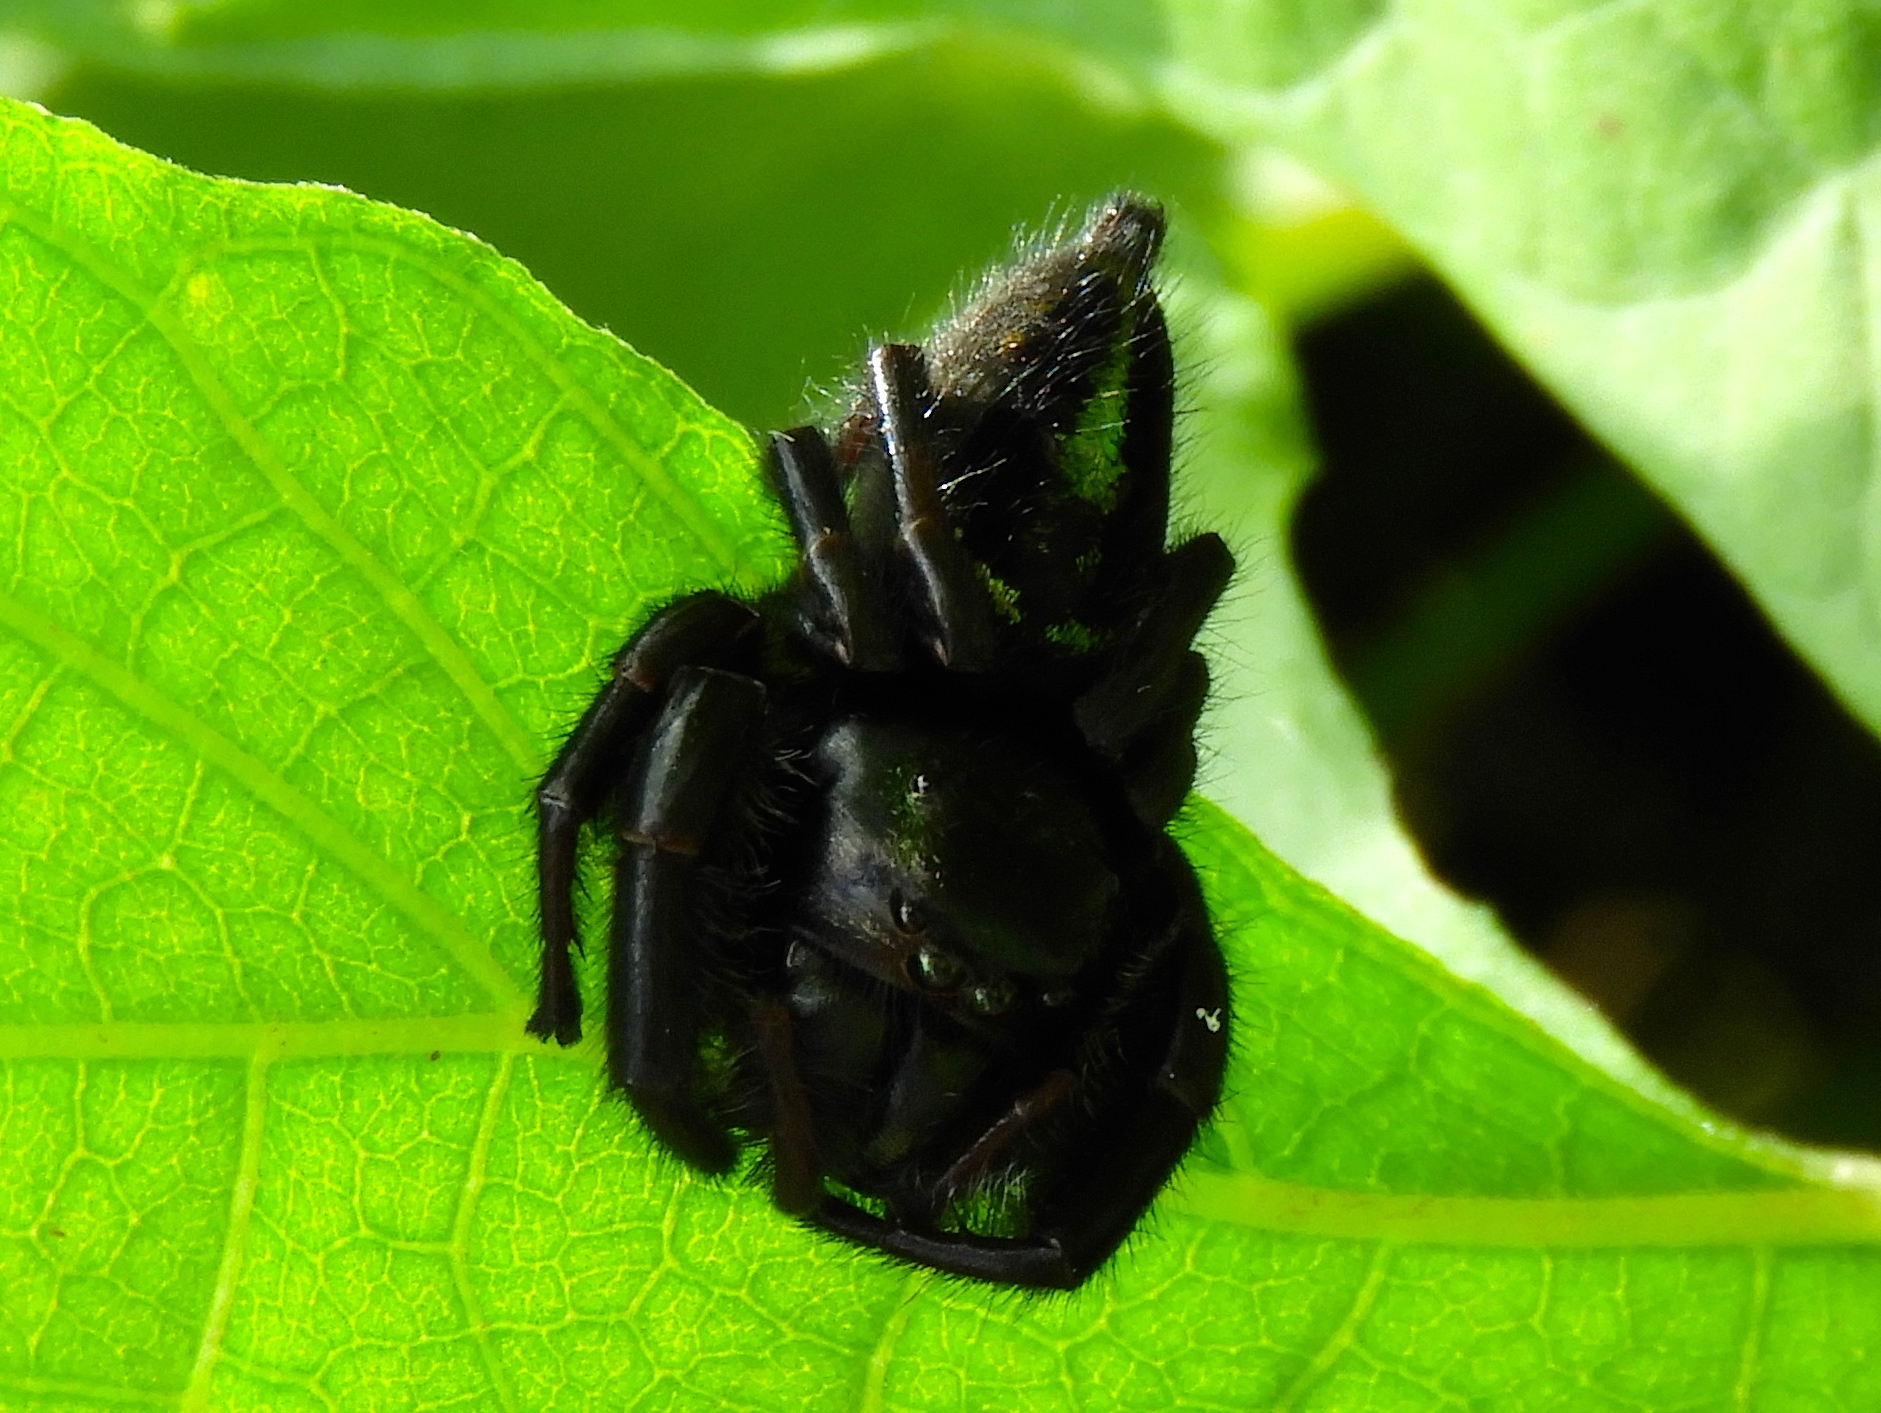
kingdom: Animalia
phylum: Arthropoda
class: Arachnida
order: Araneae
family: Salticidae
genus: Paraphidippus
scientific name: Paraphidippus
